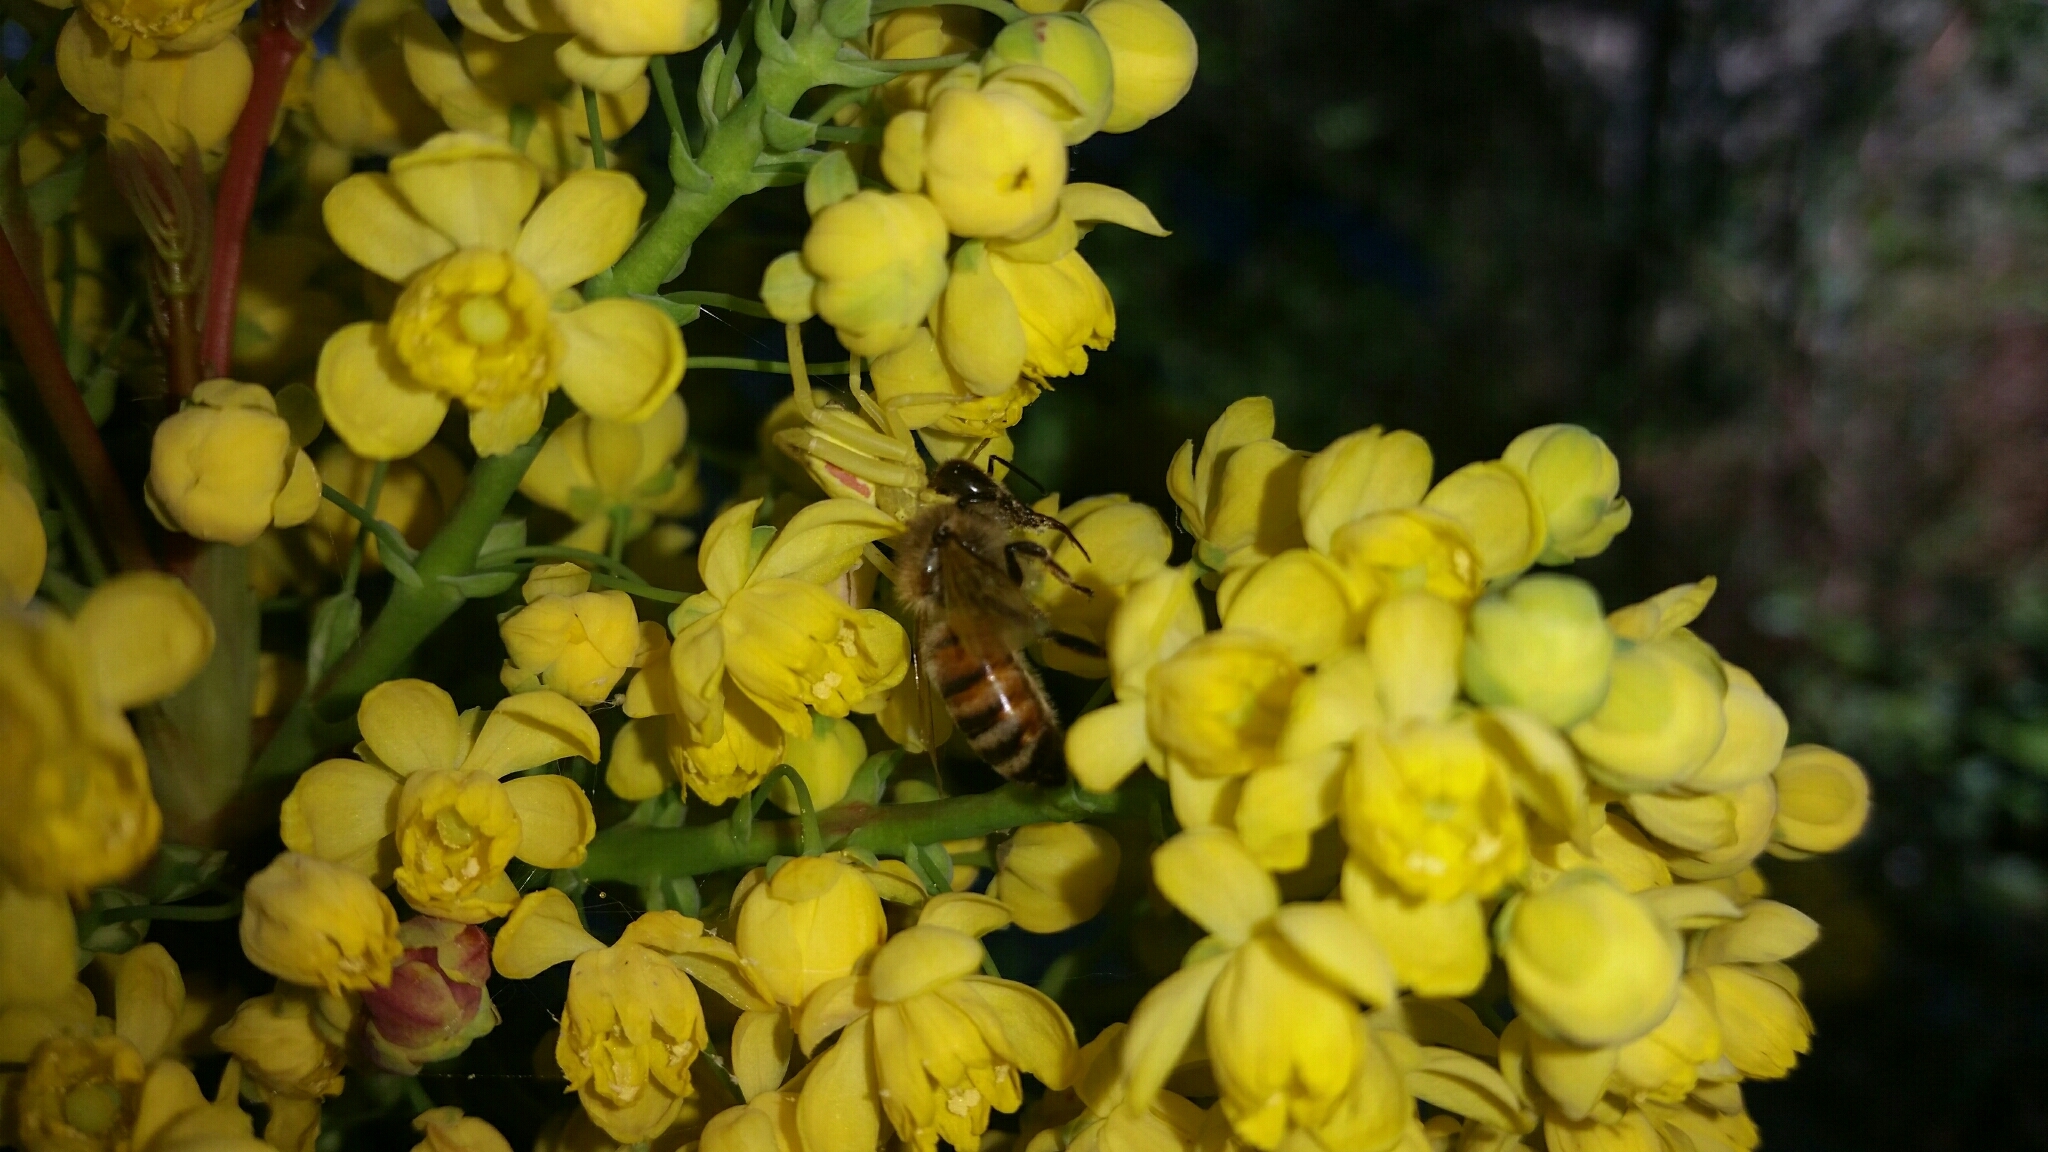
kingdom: Animalia
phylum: Arthropoda
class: Arachnida
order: Araneae
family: Thomisidae
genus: Misumena
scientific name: Misumena vatia
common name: Goldenrod crab spider
